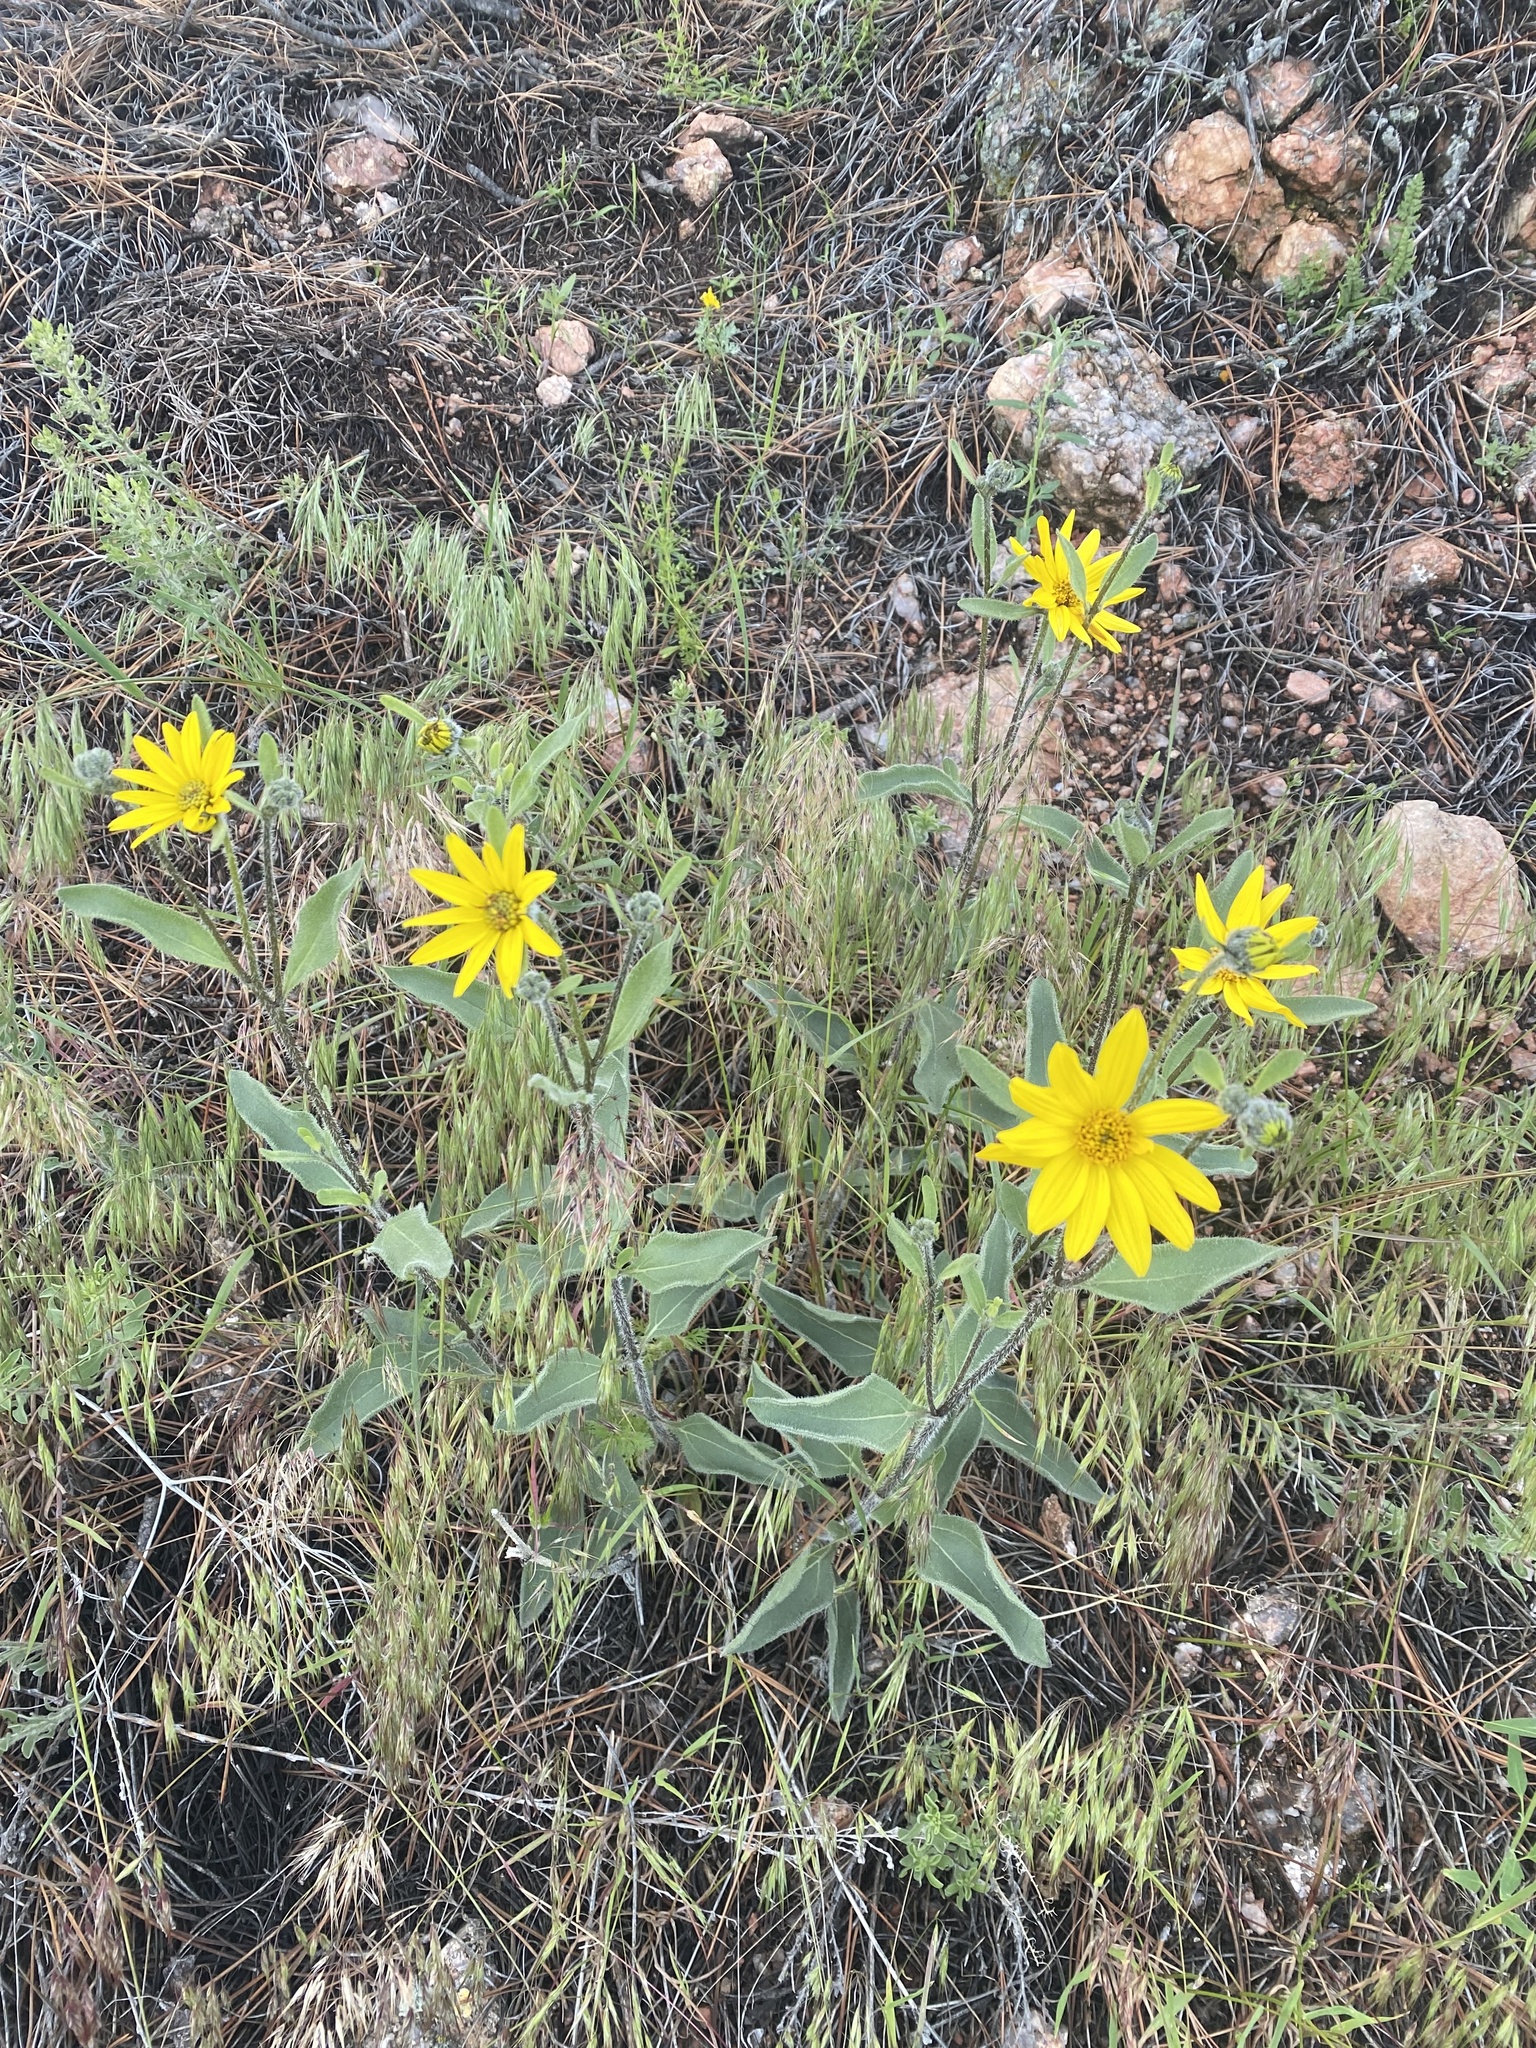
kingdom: Plantae
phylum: Tracheophyta
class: Magnoliopsida
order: Asterales
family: Asteraceae
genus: Helianthus
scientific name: Helianthus pumilus
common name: Dwarf sunflower
